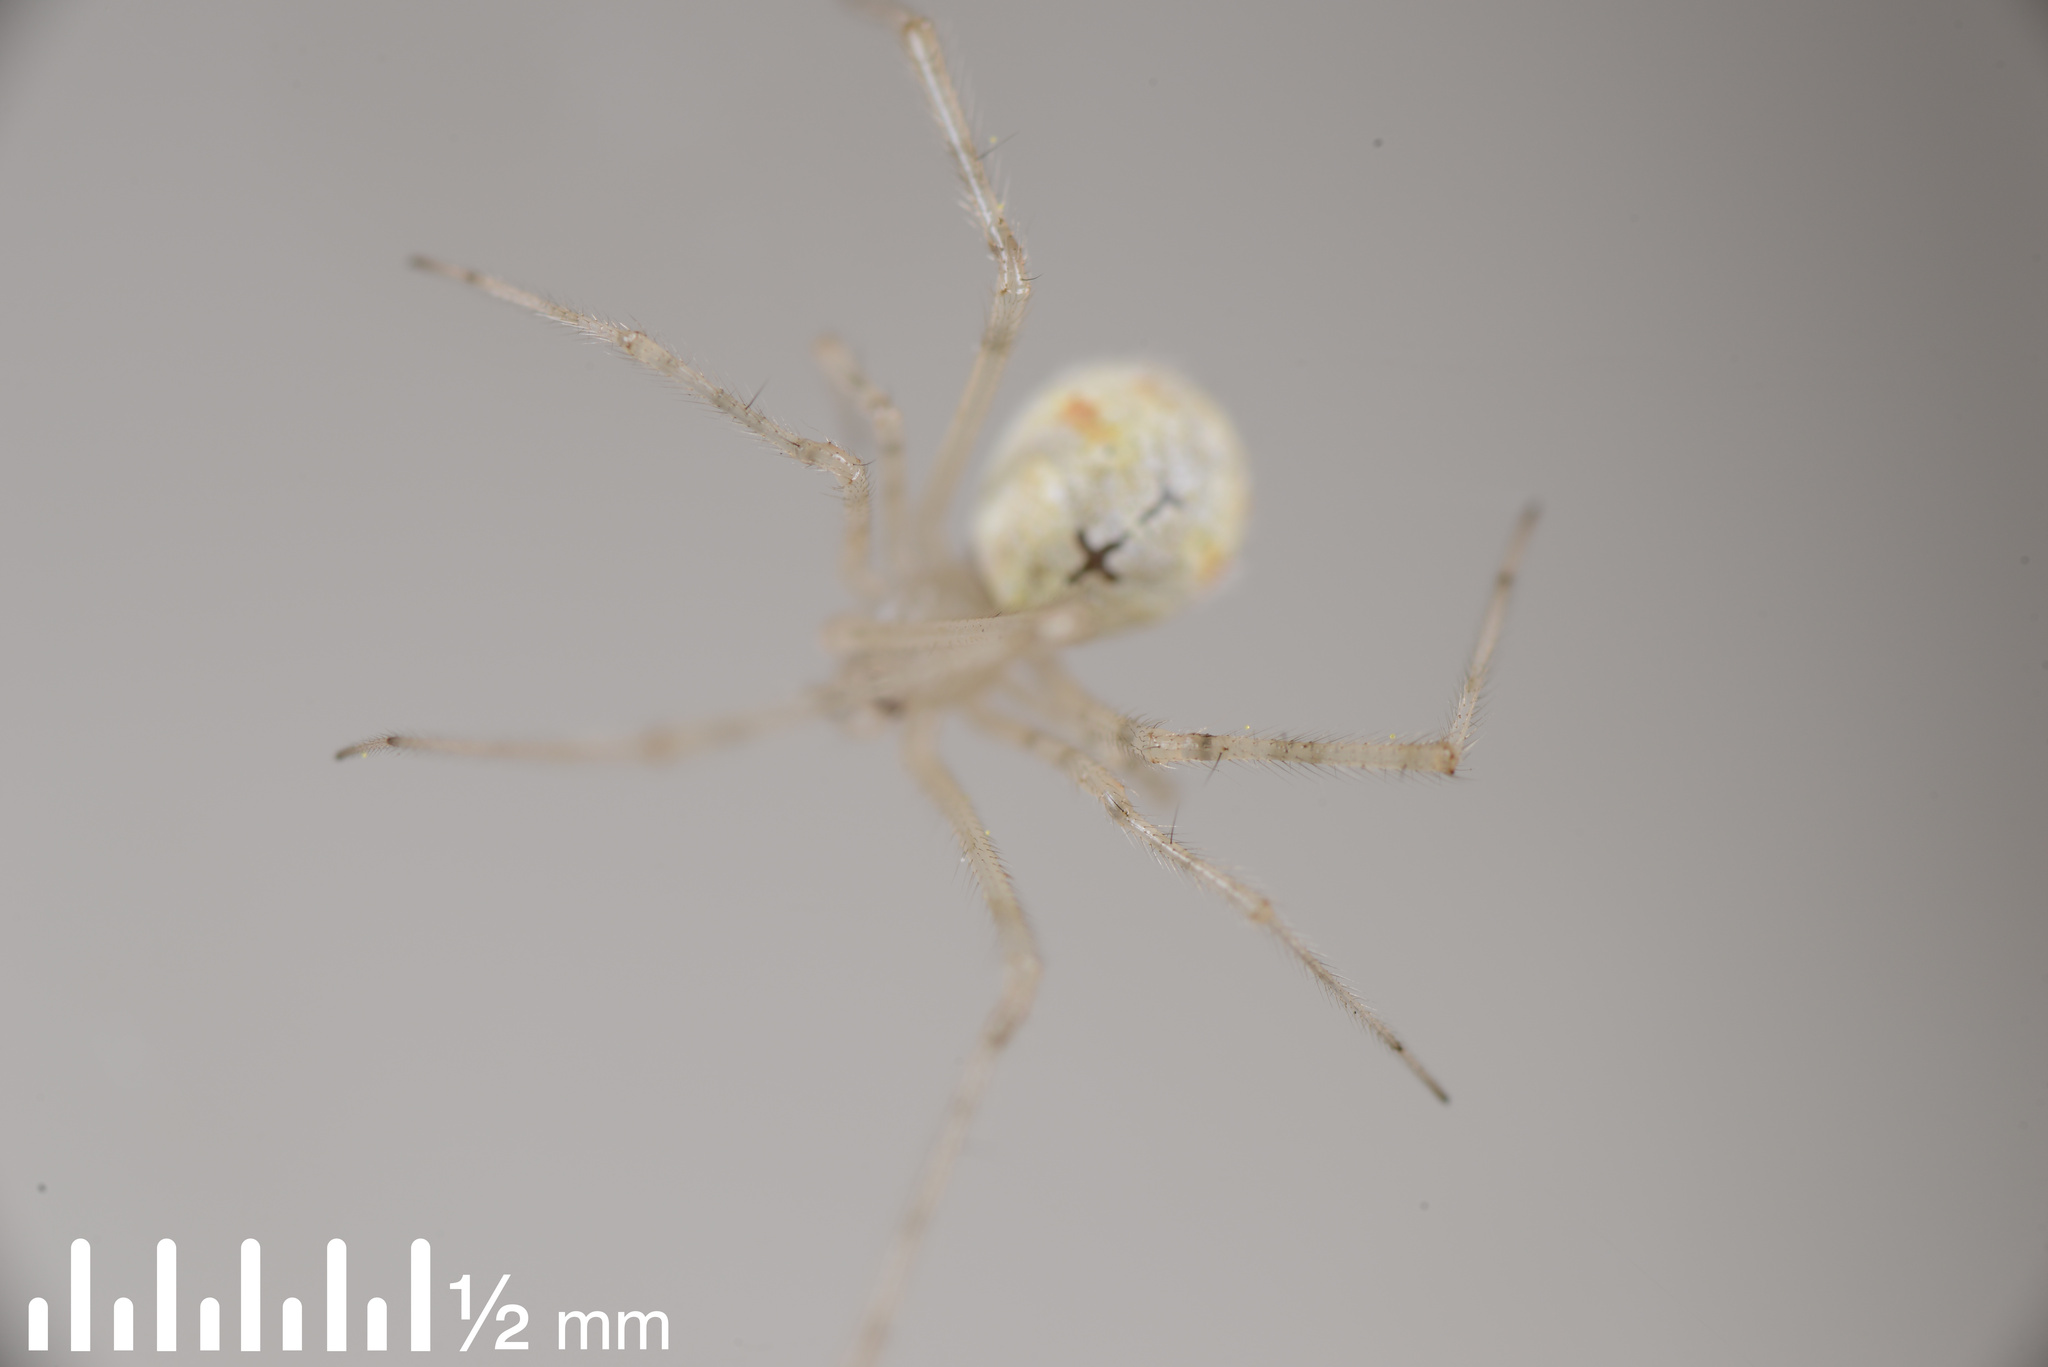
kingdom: Animalia
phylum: Arthropoda
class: Arachnida
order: Araneae
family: Theridiidae
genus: Cryptachaea
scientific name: Cryptachaea gigantipes
